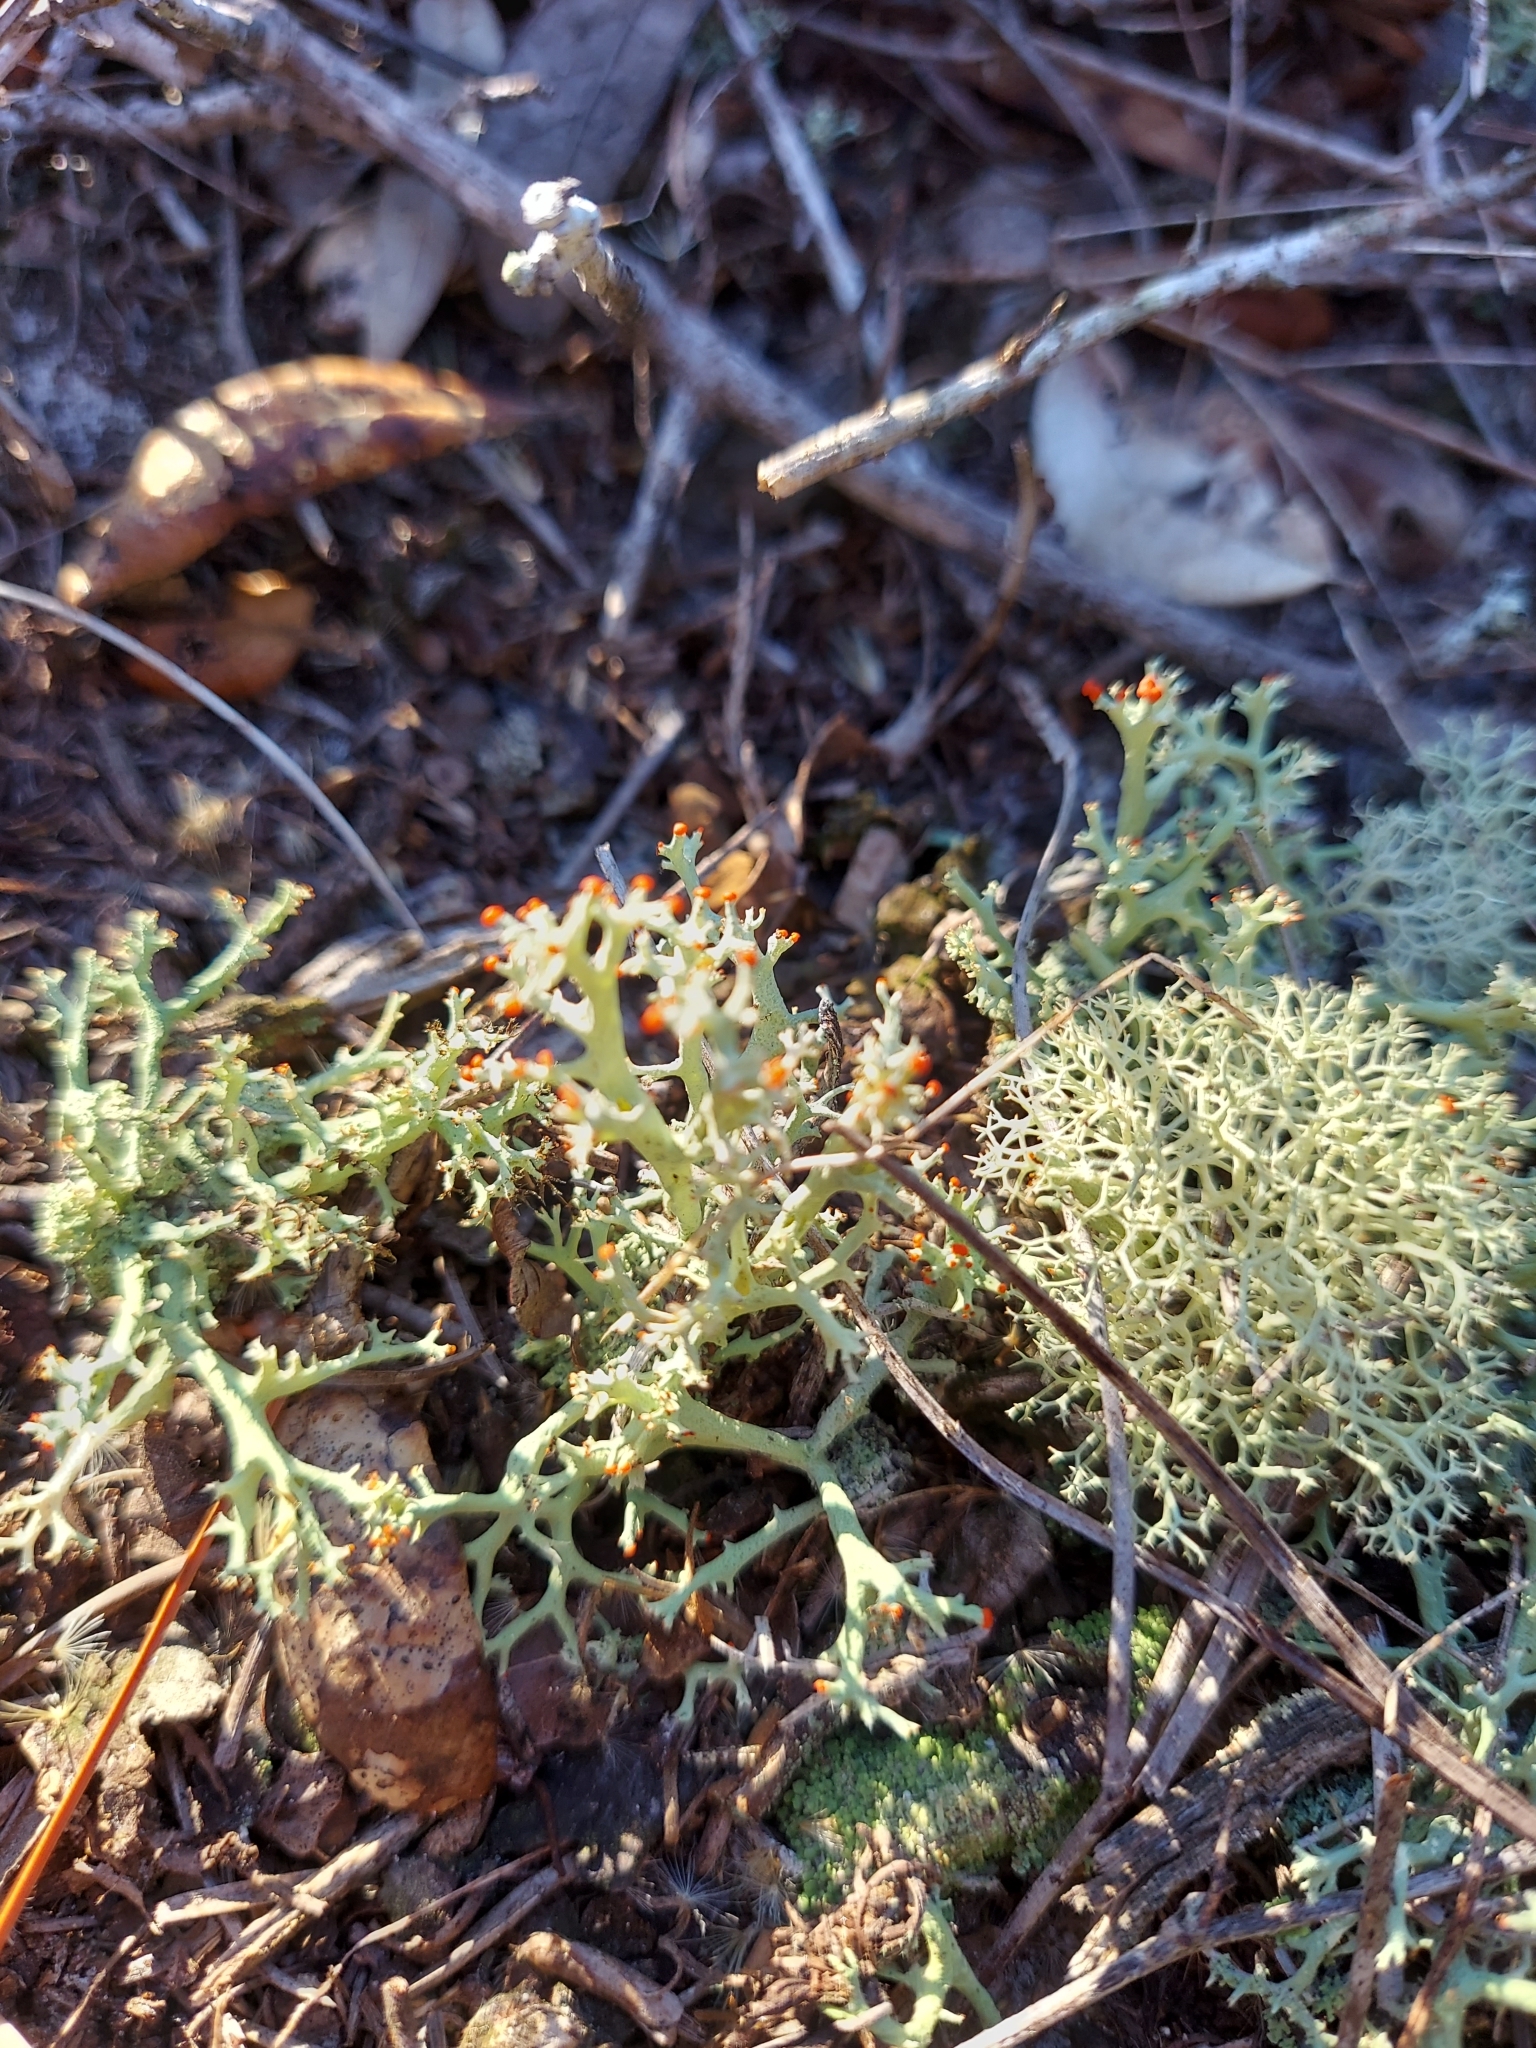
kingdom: Fungi
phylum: Ascomycota
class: Lecanoromycetes
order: Lecanorales
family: Cladoniaceae
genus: Cladonia
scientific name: Cladonia leporina
